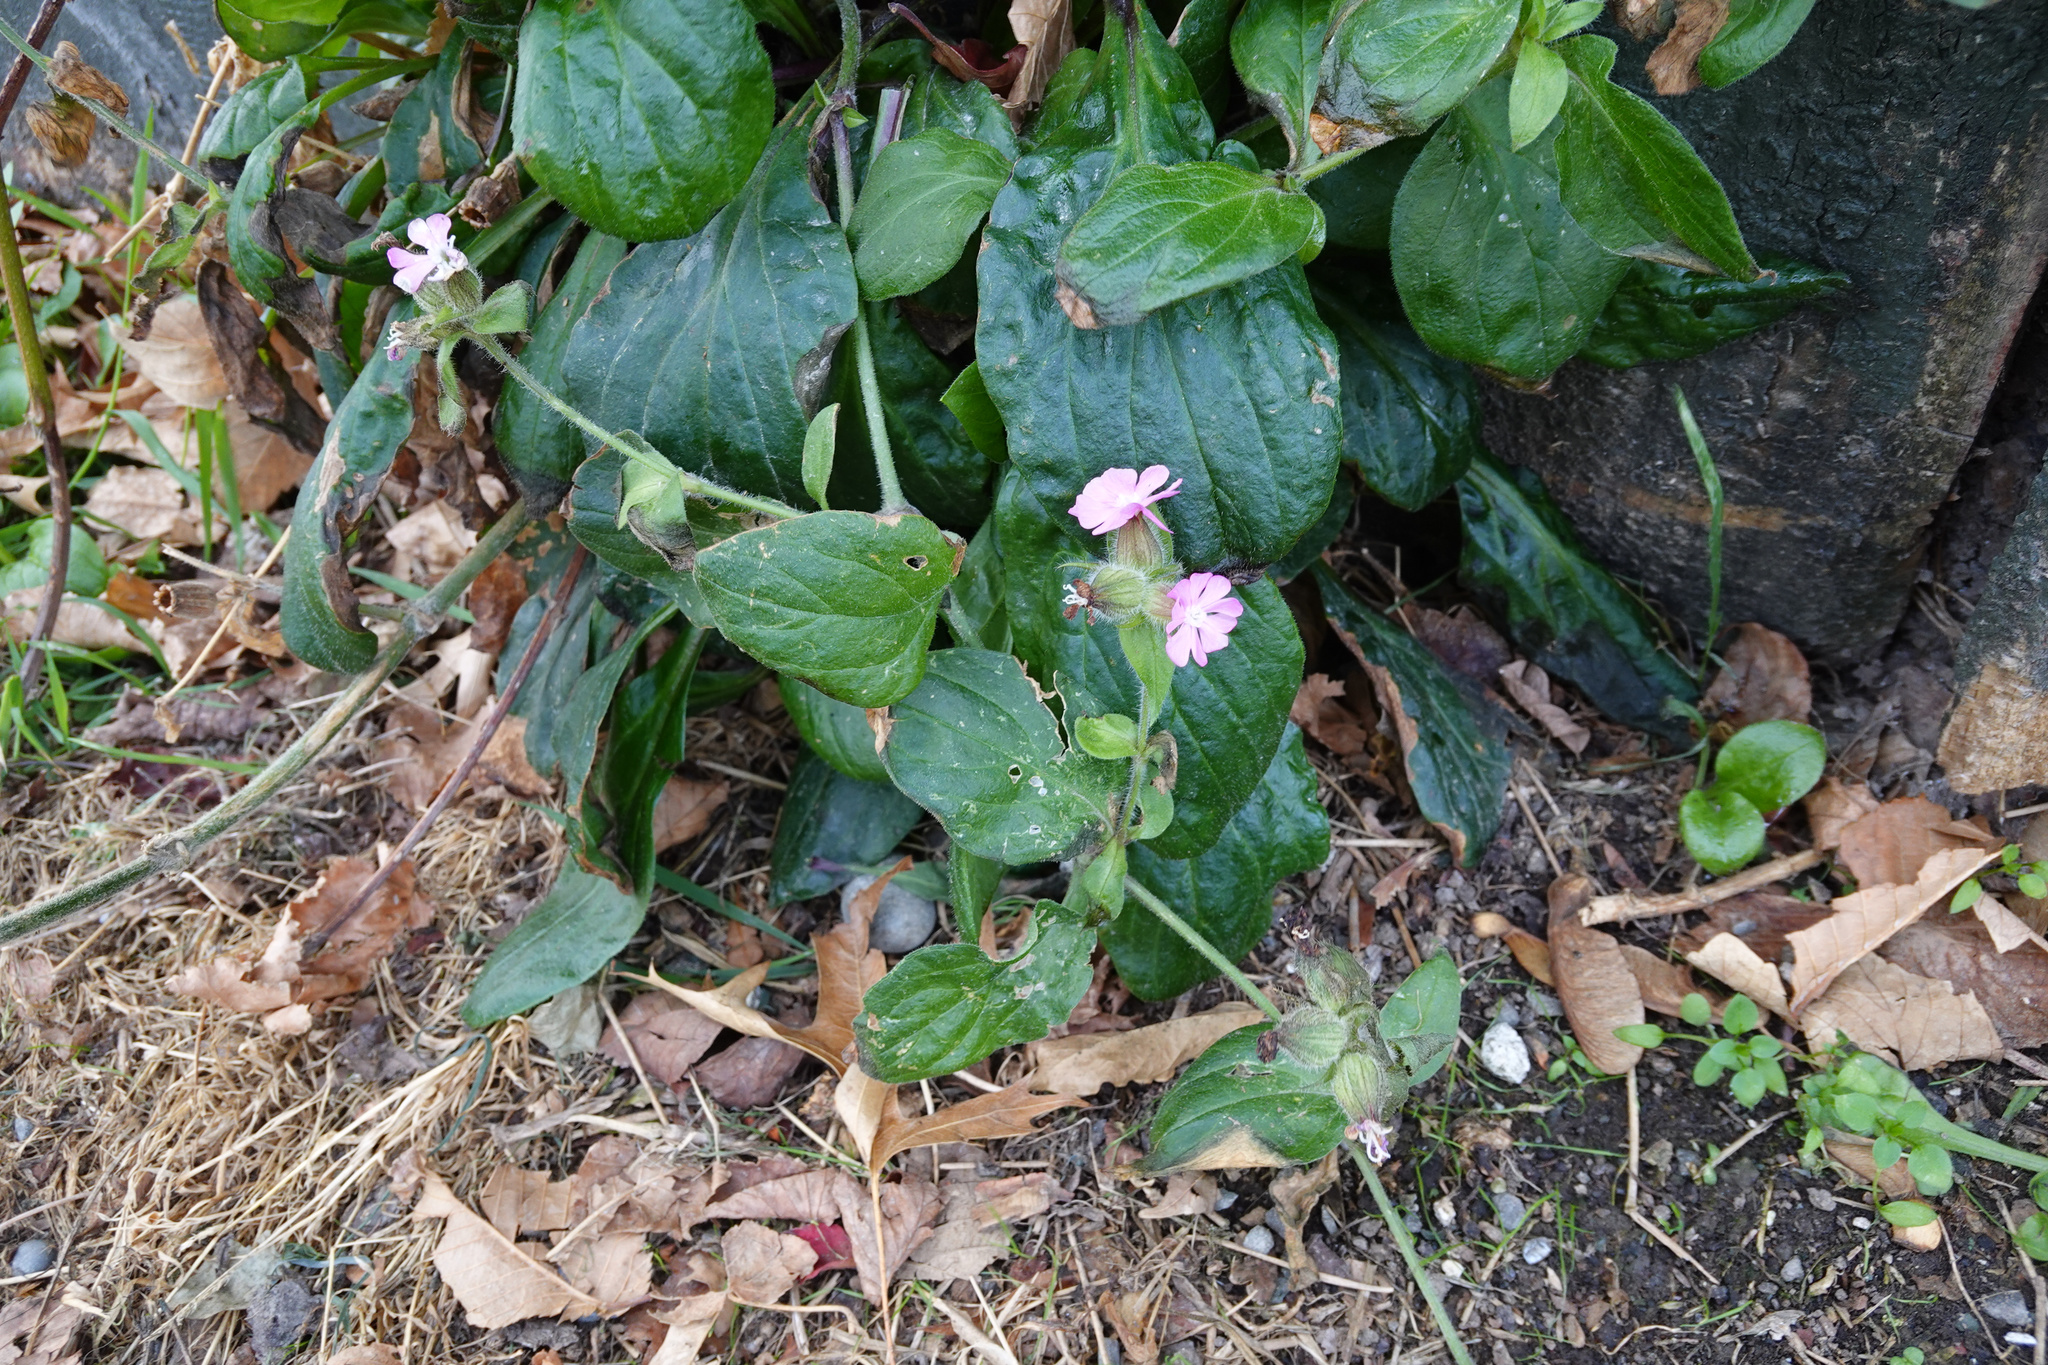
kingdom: Plantae
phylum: Tracheophyta
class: Magnoliopsida
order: Caryophyllales
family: Caryophyllaceae
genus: Silene
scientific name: Silene dioica
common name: Red campion
